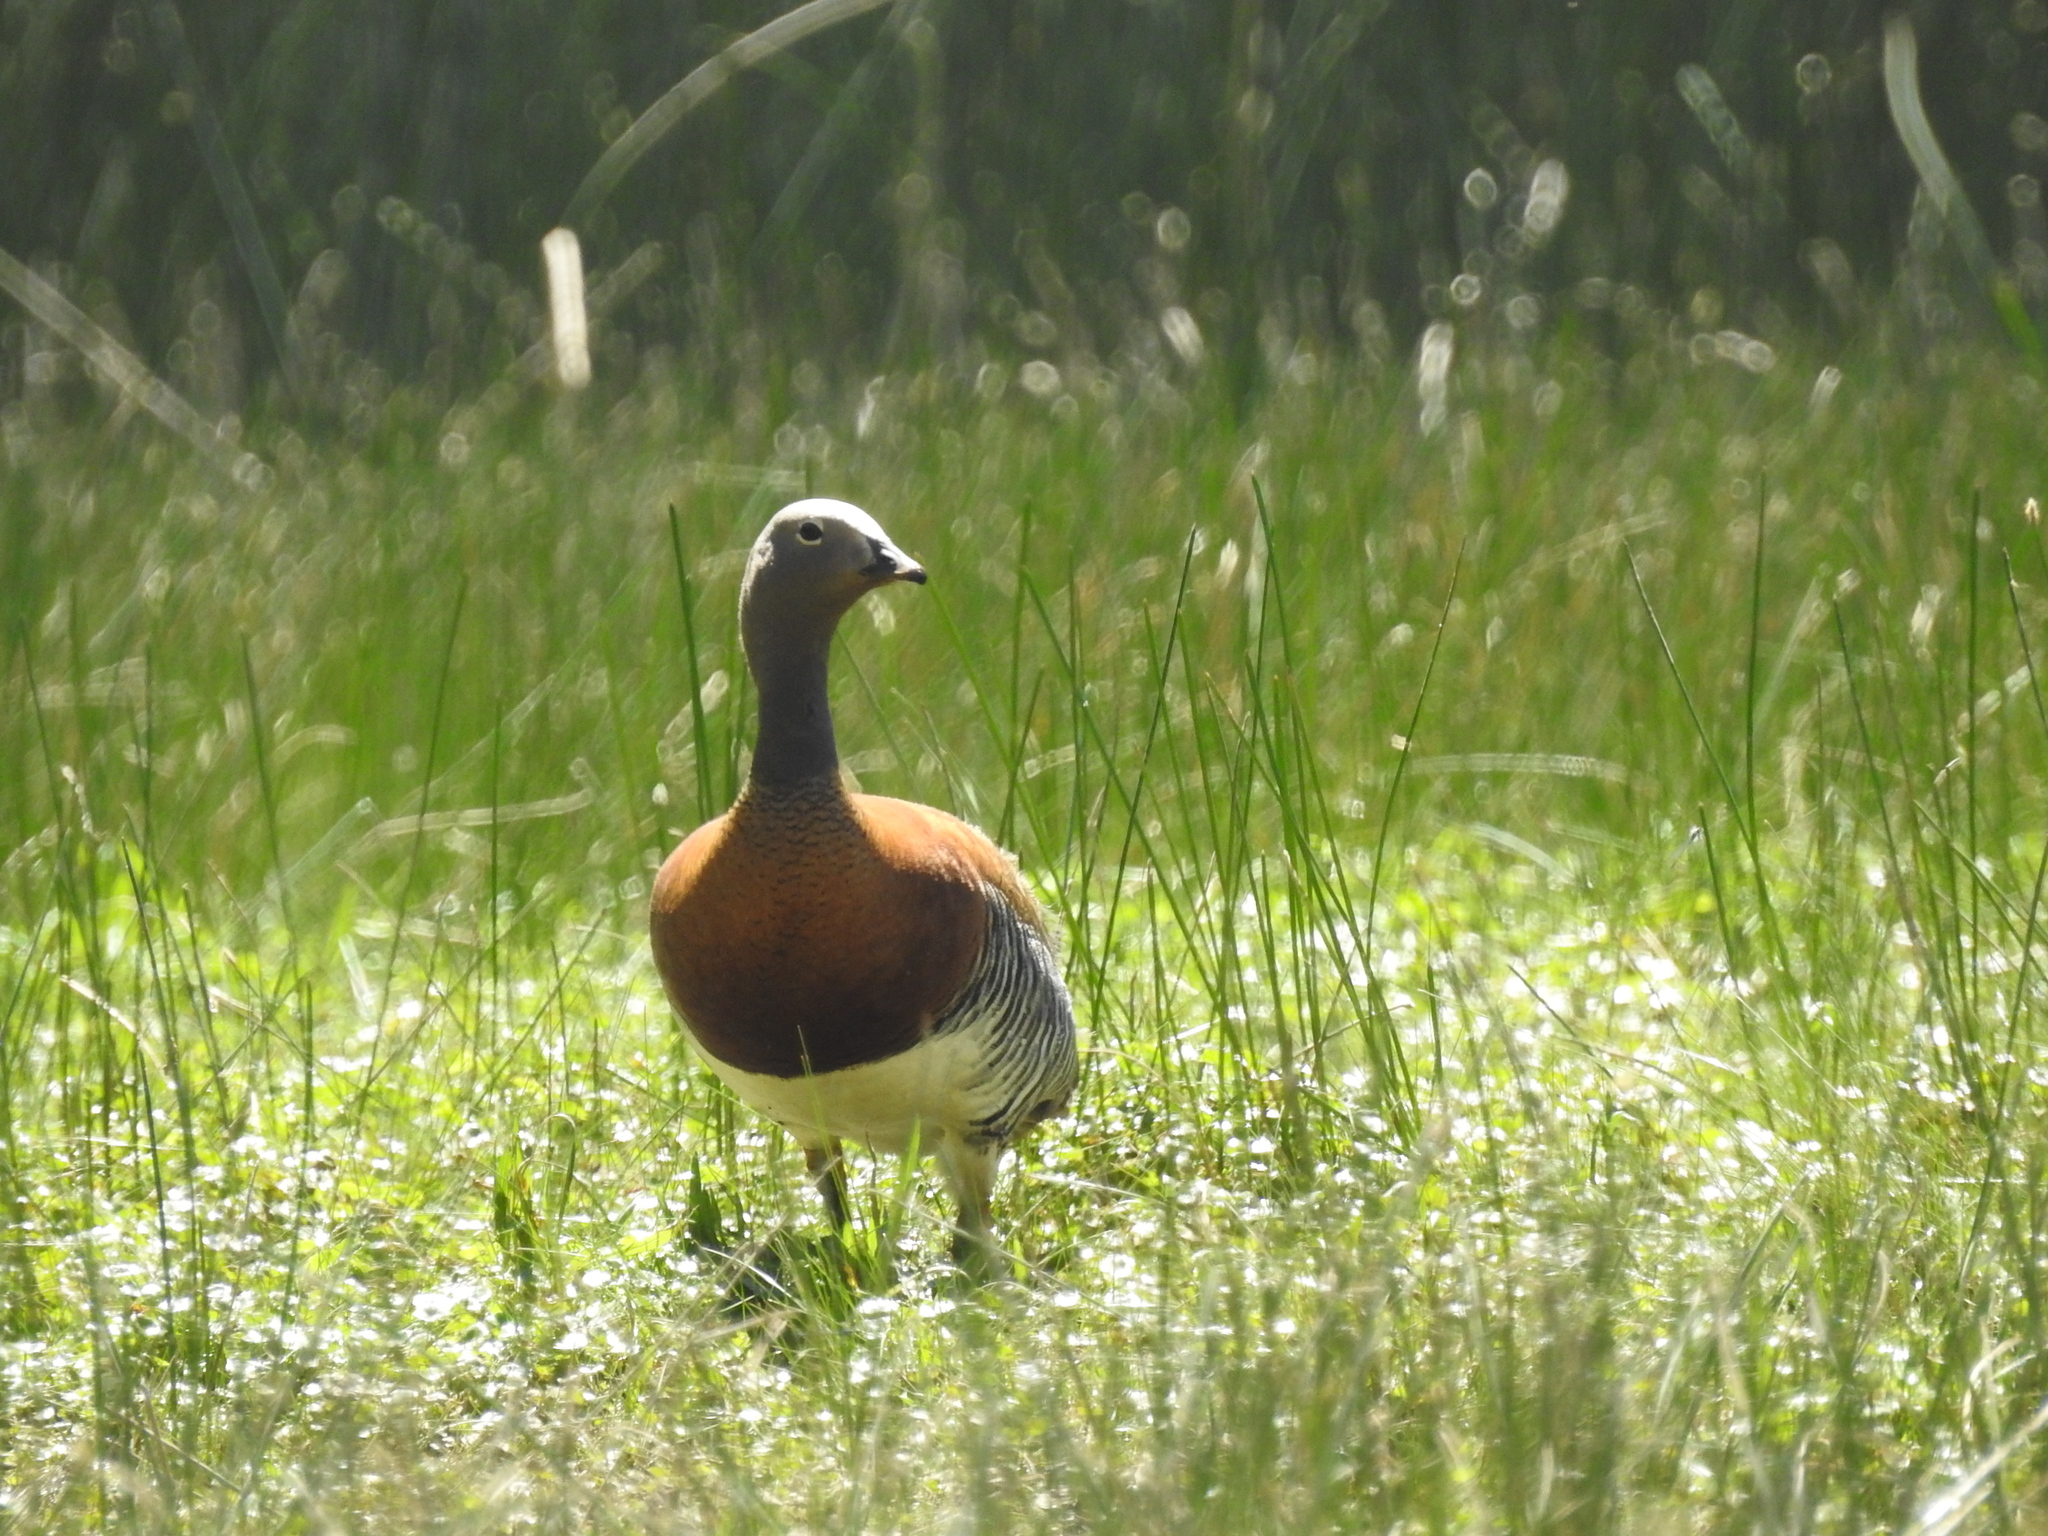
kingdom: Animalia
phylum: Chordata
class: Aves
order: Anseriformes
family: Anatidae
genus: Chloephaga
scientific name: Chloephaga poliocephala
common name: Ashy-headed goose
